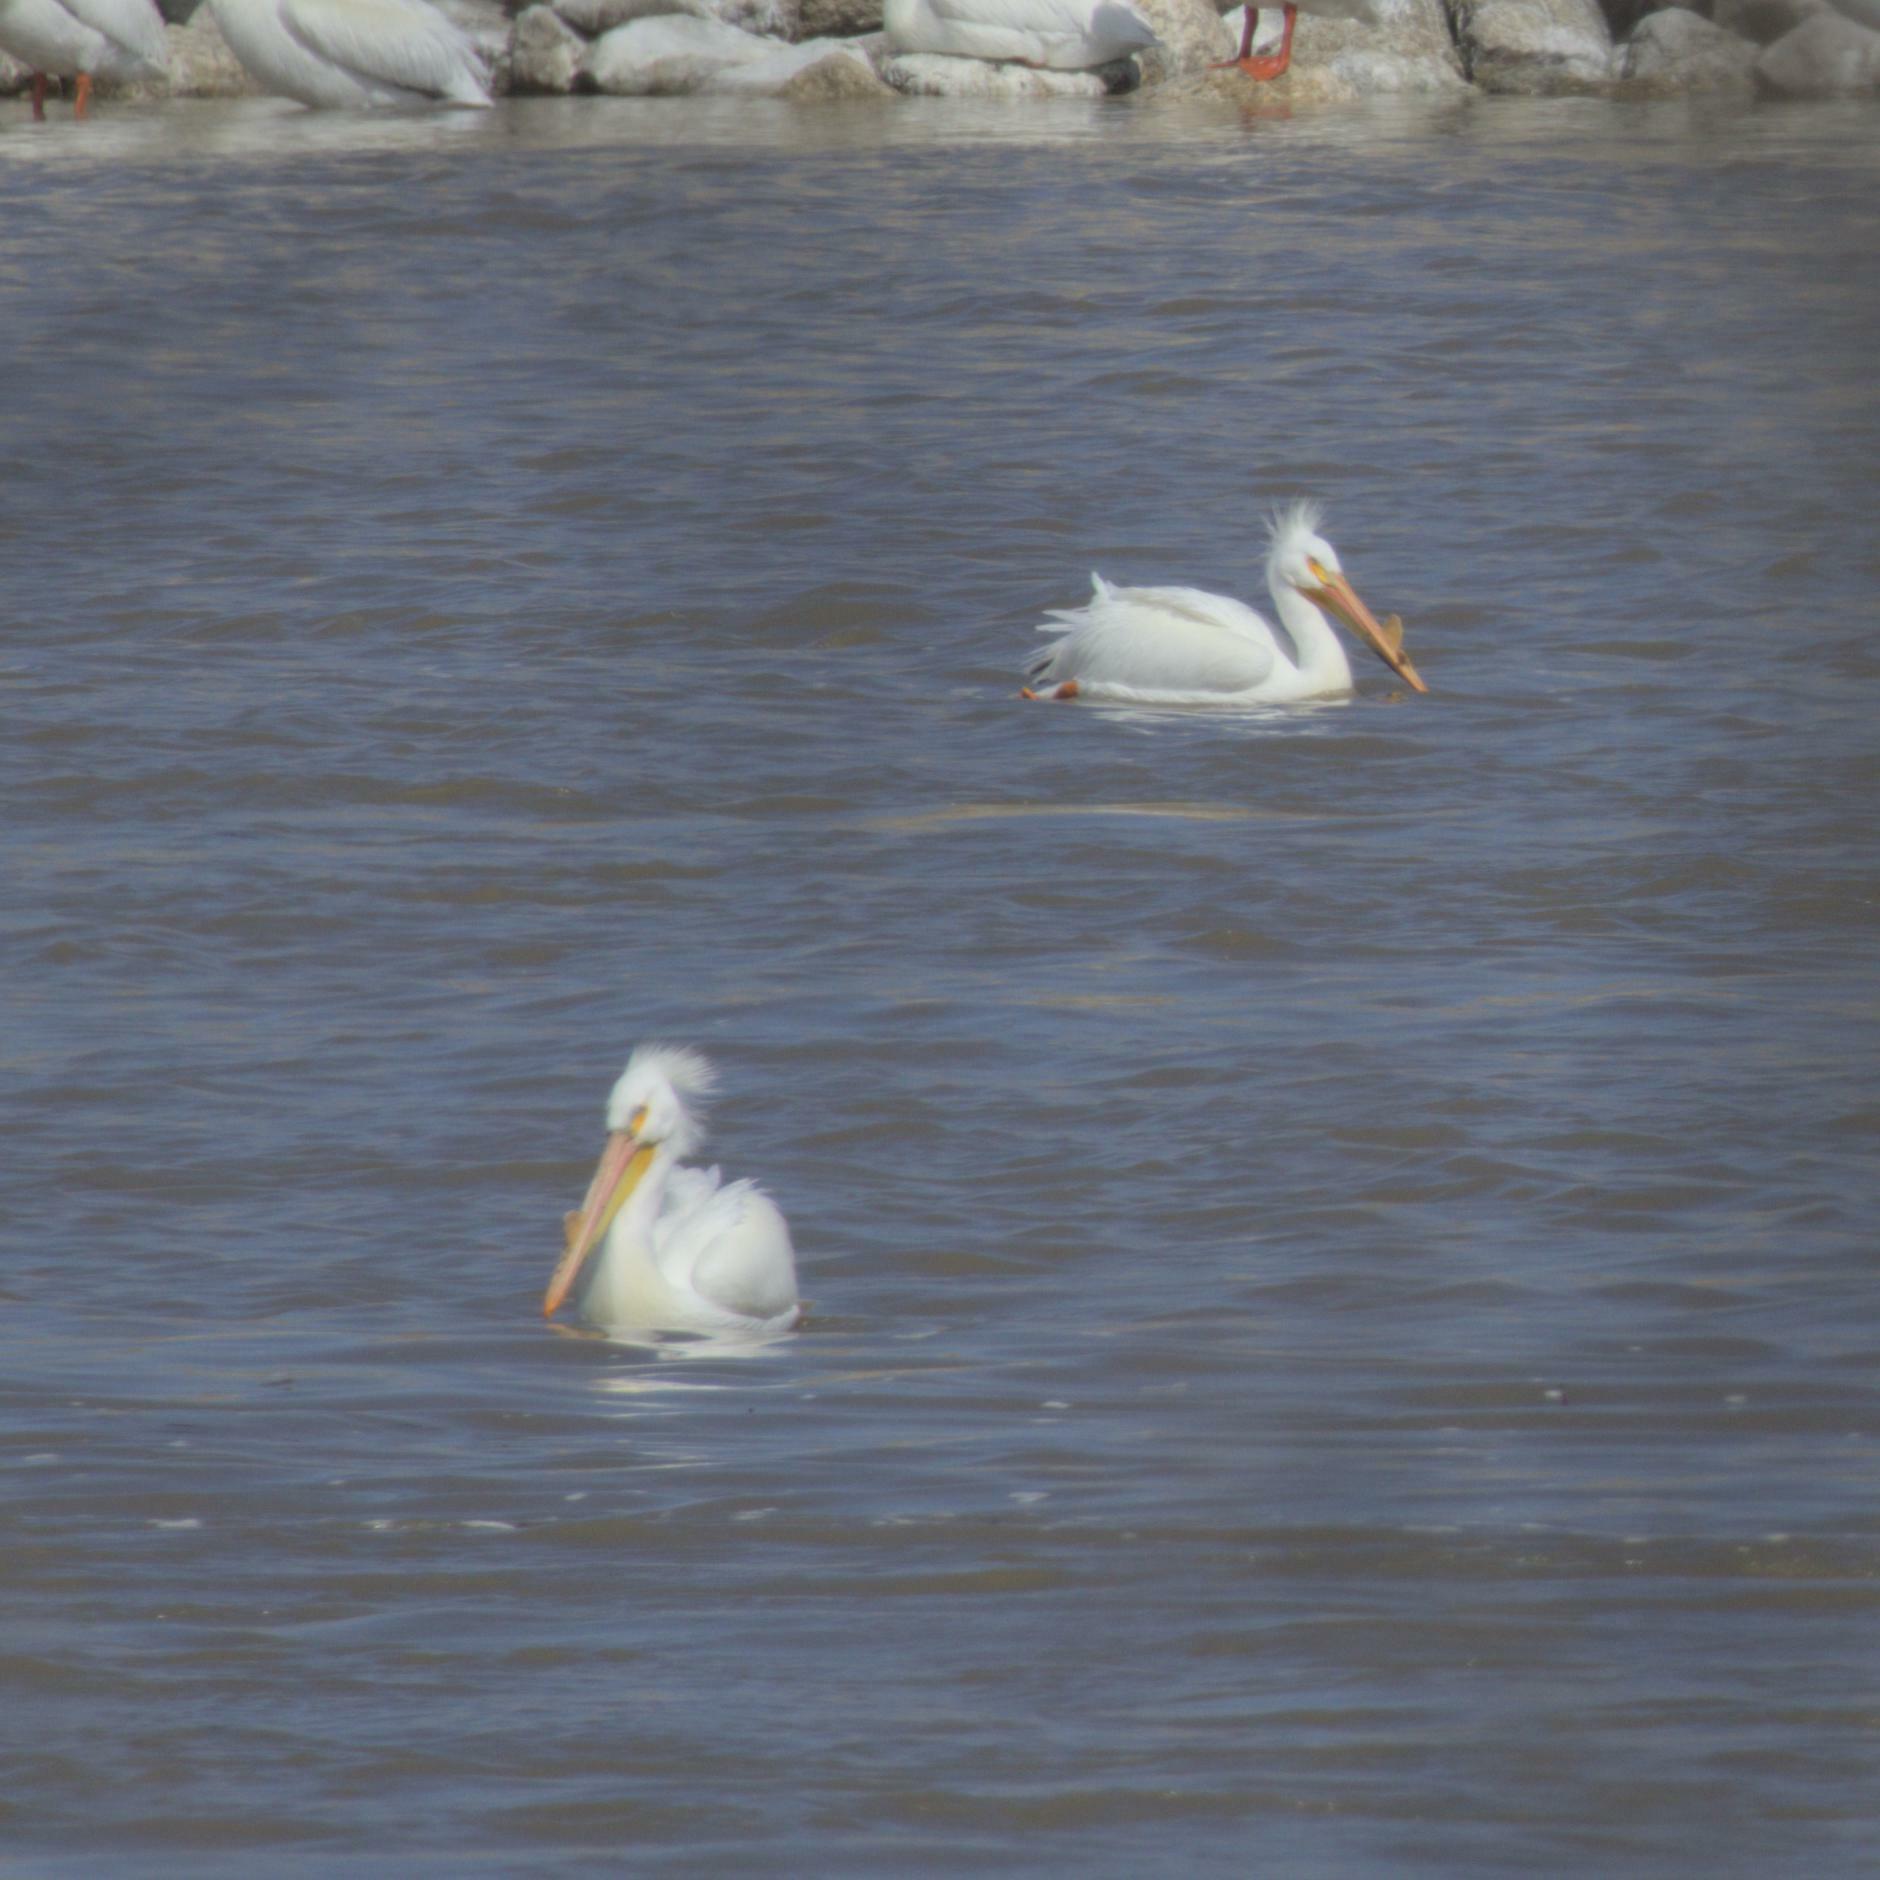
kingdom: Animalia
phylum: Chordata
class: Aves
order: Pelecaniformes
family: Pelecanidae
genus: Pelecanus
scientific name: Pelecanus erythrorhynchos
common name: American white pelican
